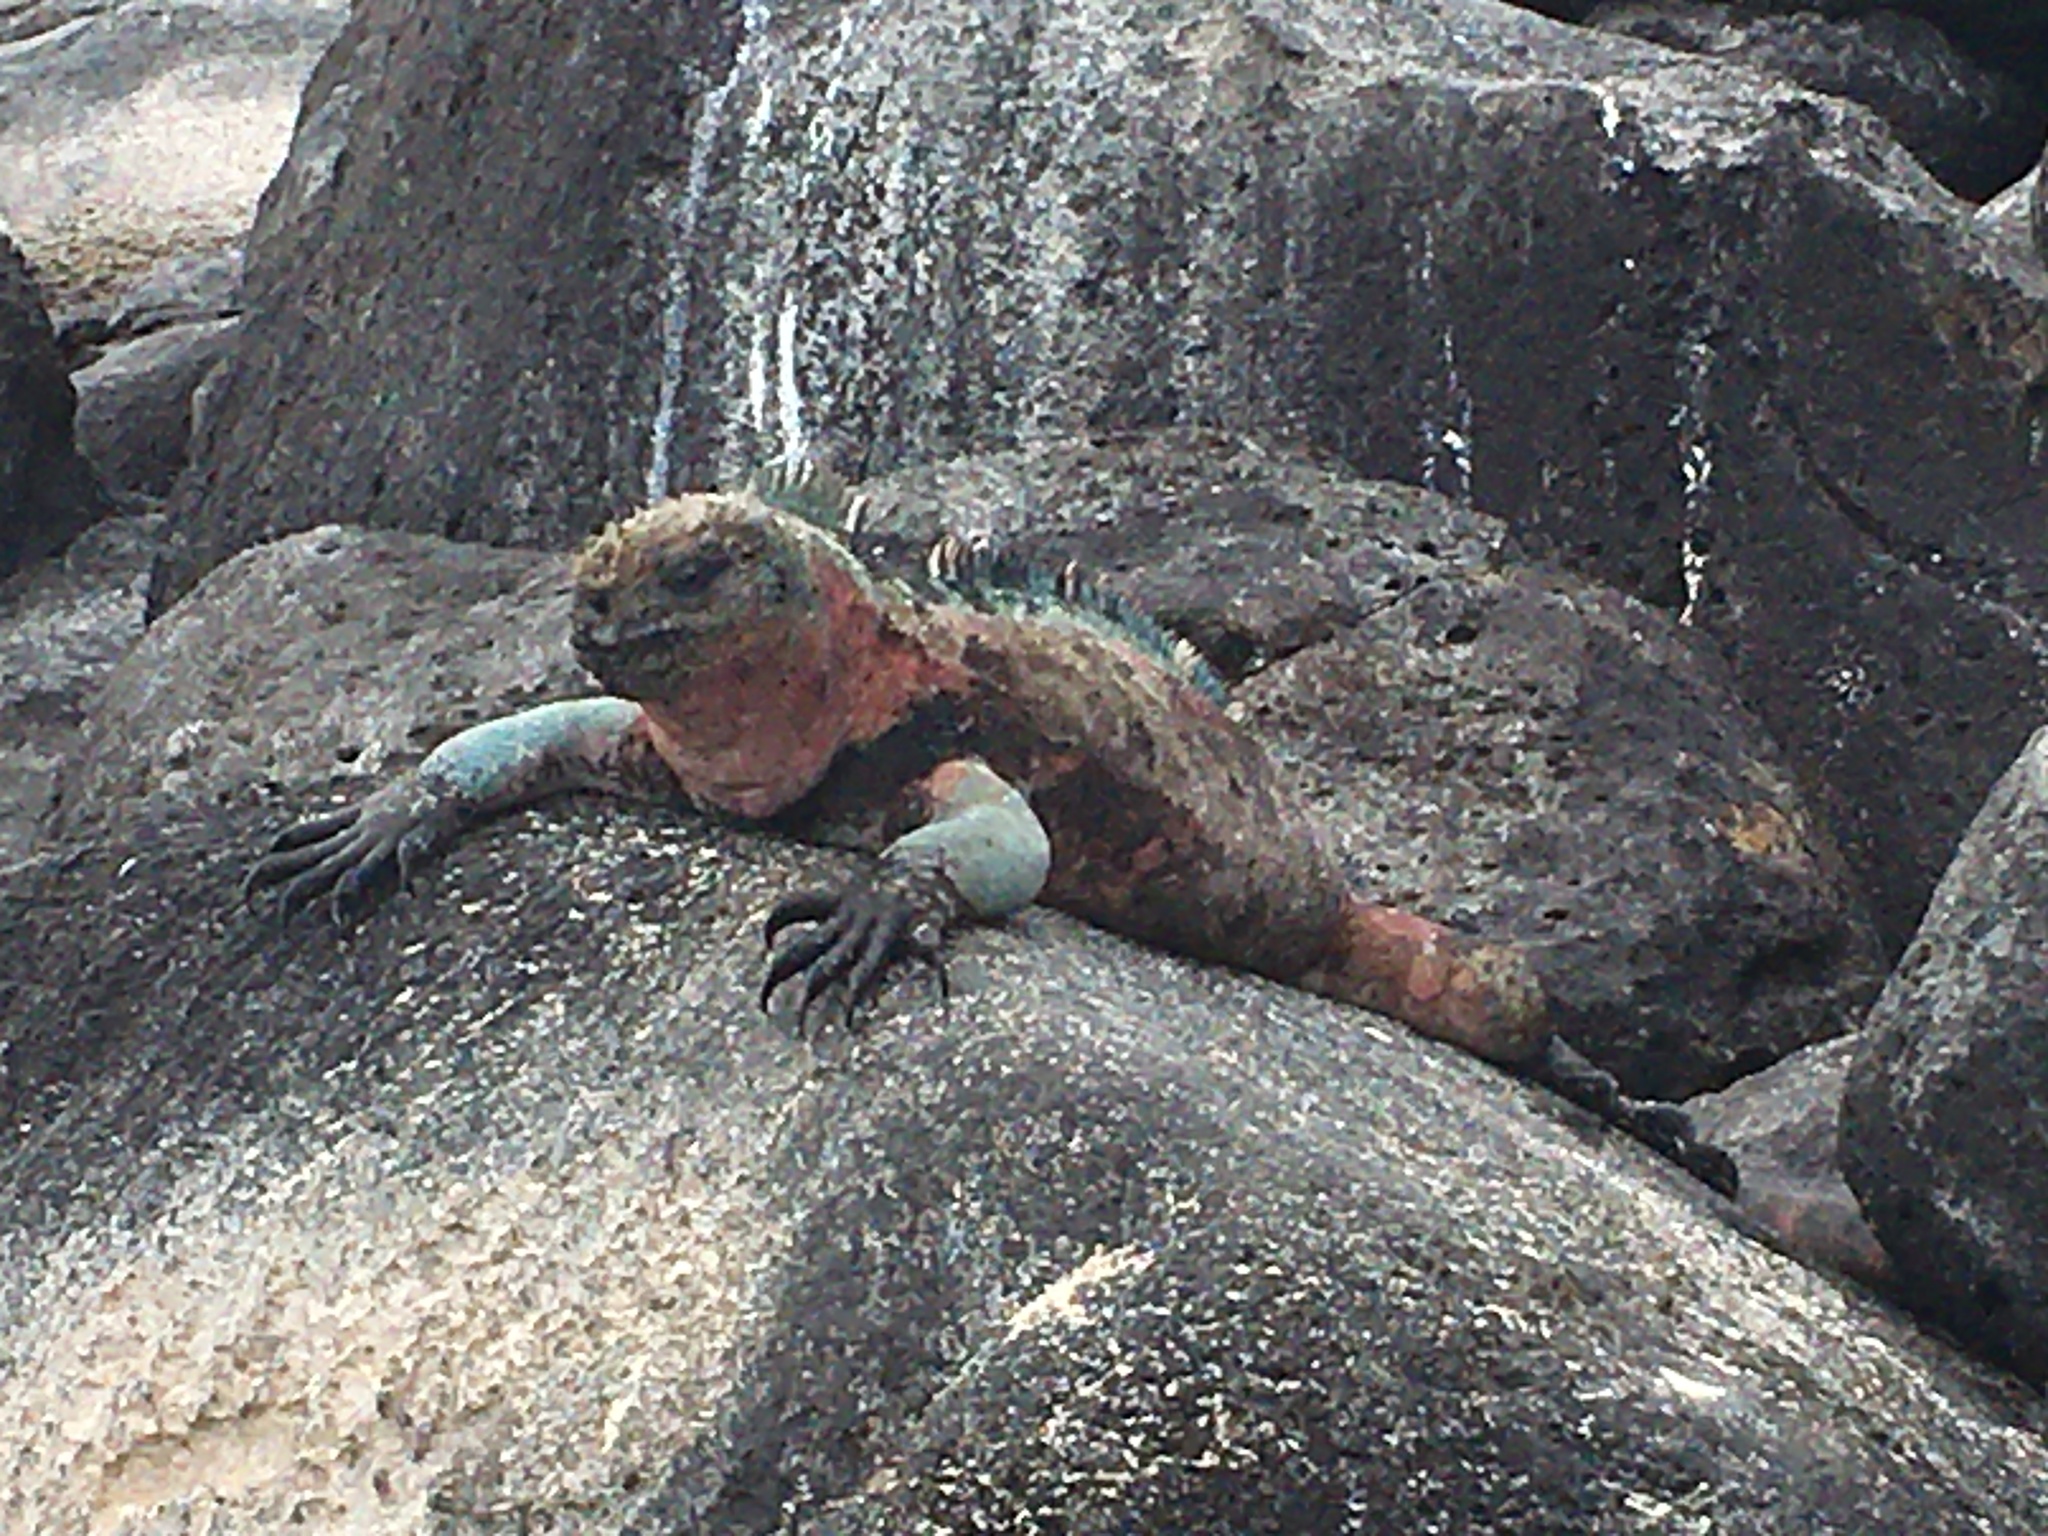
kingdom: Animalia
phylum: Chordata
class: Squamata
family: Iguanidae
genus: Amblyrhynchus
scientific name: Amblyrhynchus cristatus
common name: Marine iguana
